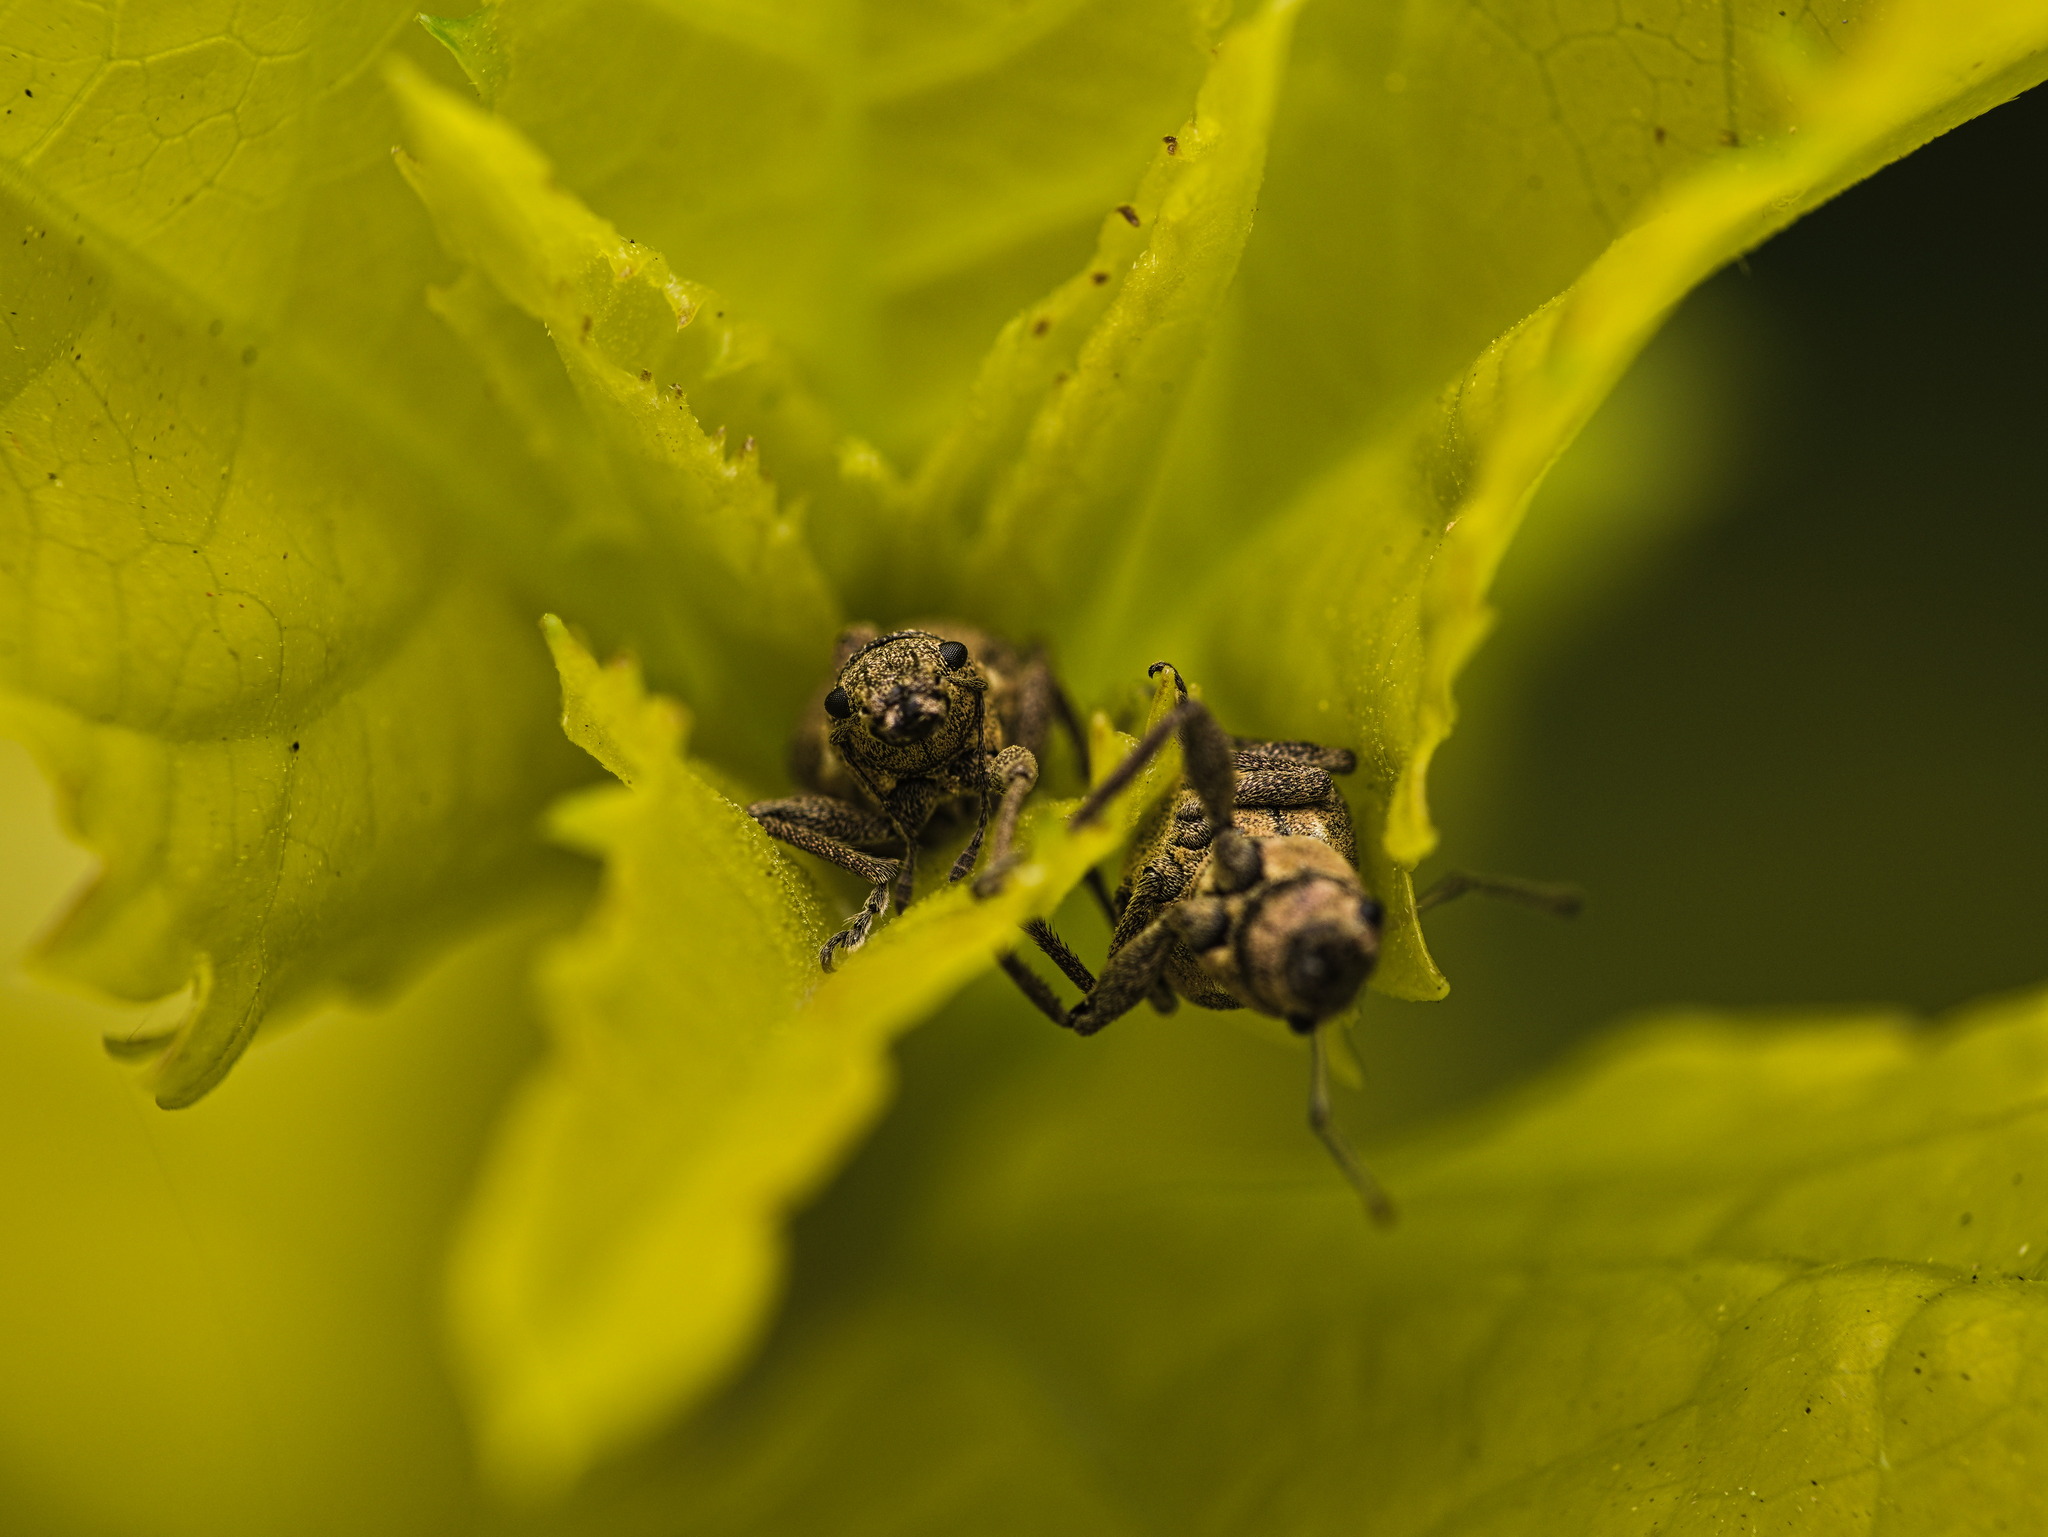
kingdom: Animalia
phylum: Arthropoda
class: Insecta
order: Coleoptera
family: Curculionidae
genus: Naupactus
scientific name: Naupactus cervinus
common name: Fuller rose beetle
